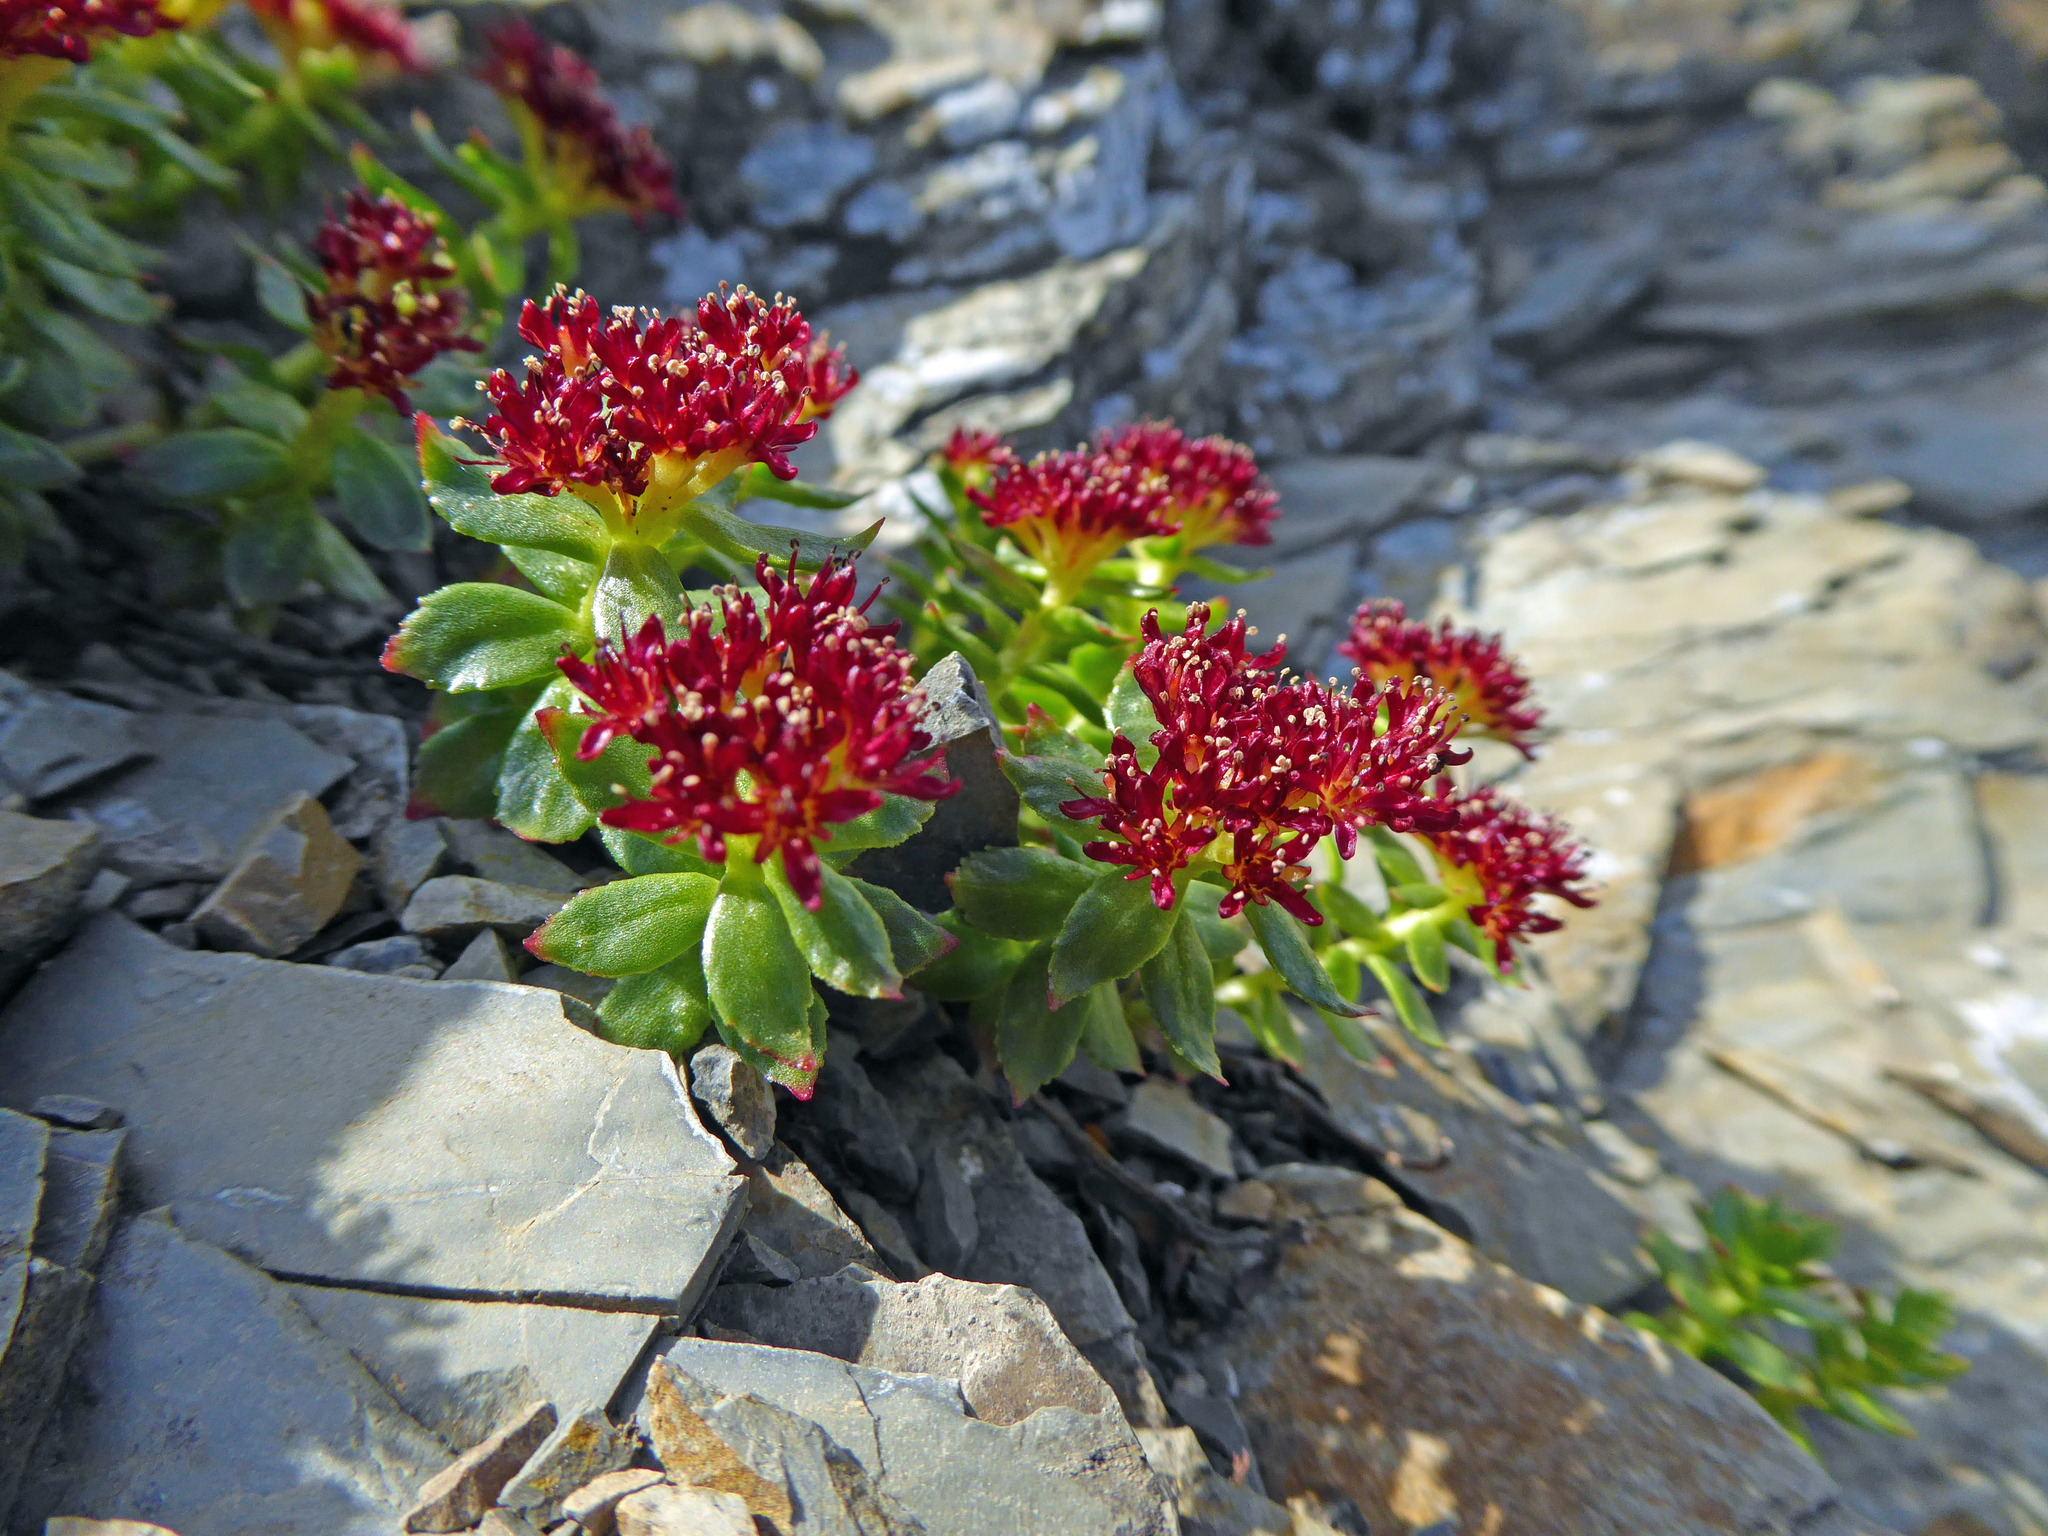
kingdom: Plantae
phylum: Tracheophyta
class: Magnoliopsida
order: Saxifragales
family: Crassulaceae
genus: Rhodiola
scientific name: Rhodiola integrifolia
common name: Western roseroot
